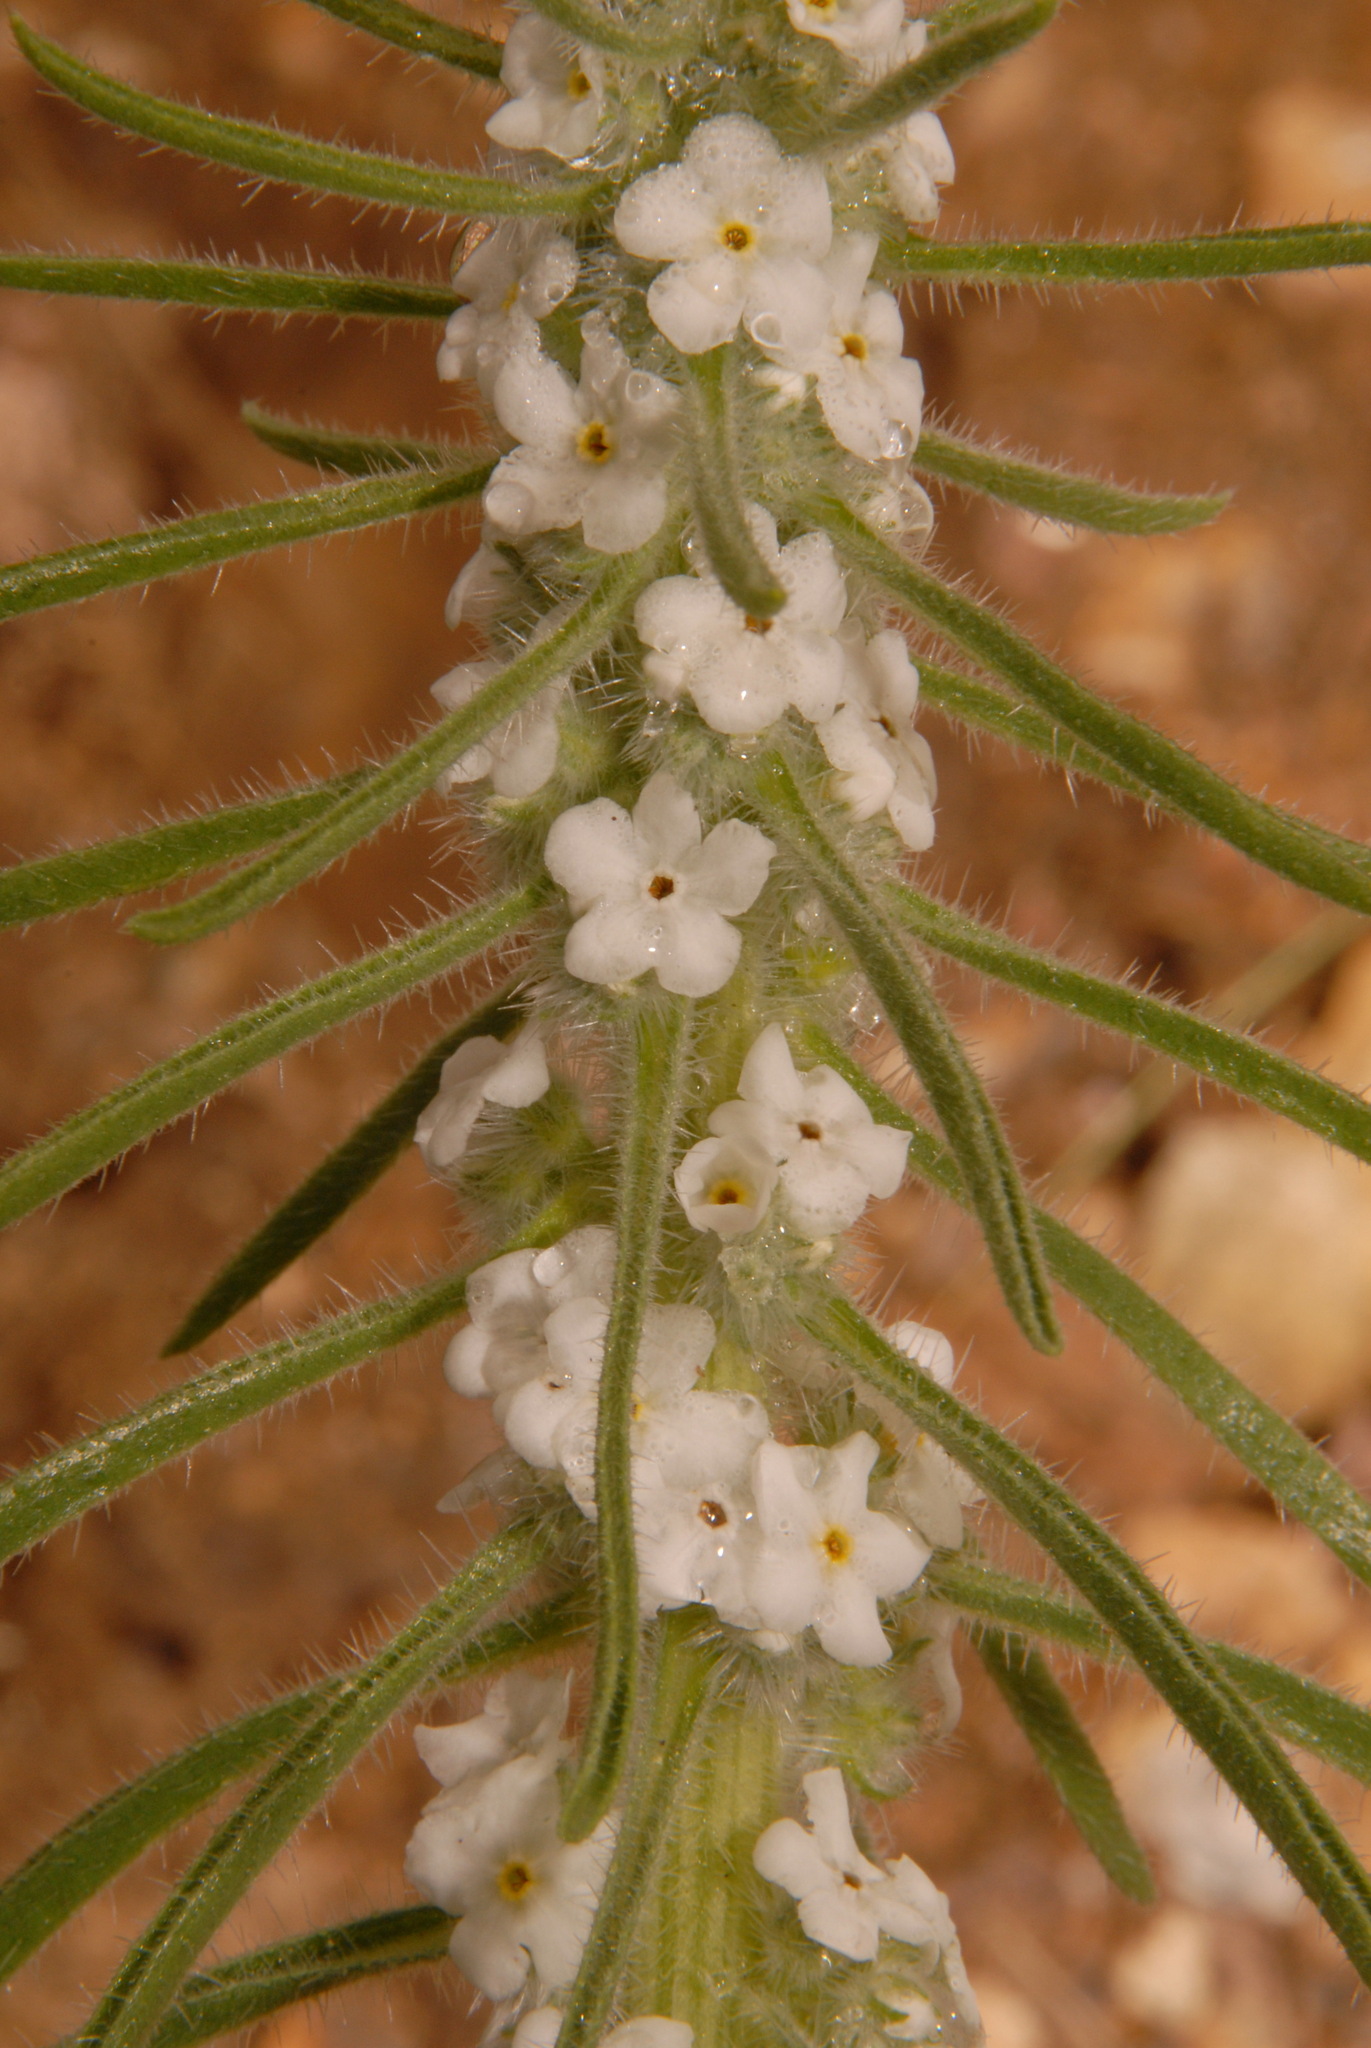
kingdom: Plantae
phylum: Tracheophyta
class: Magnoliopsida
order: Boraginales
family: Boraginaceae
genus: Oreocarya
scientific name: Oreocarya virgata
